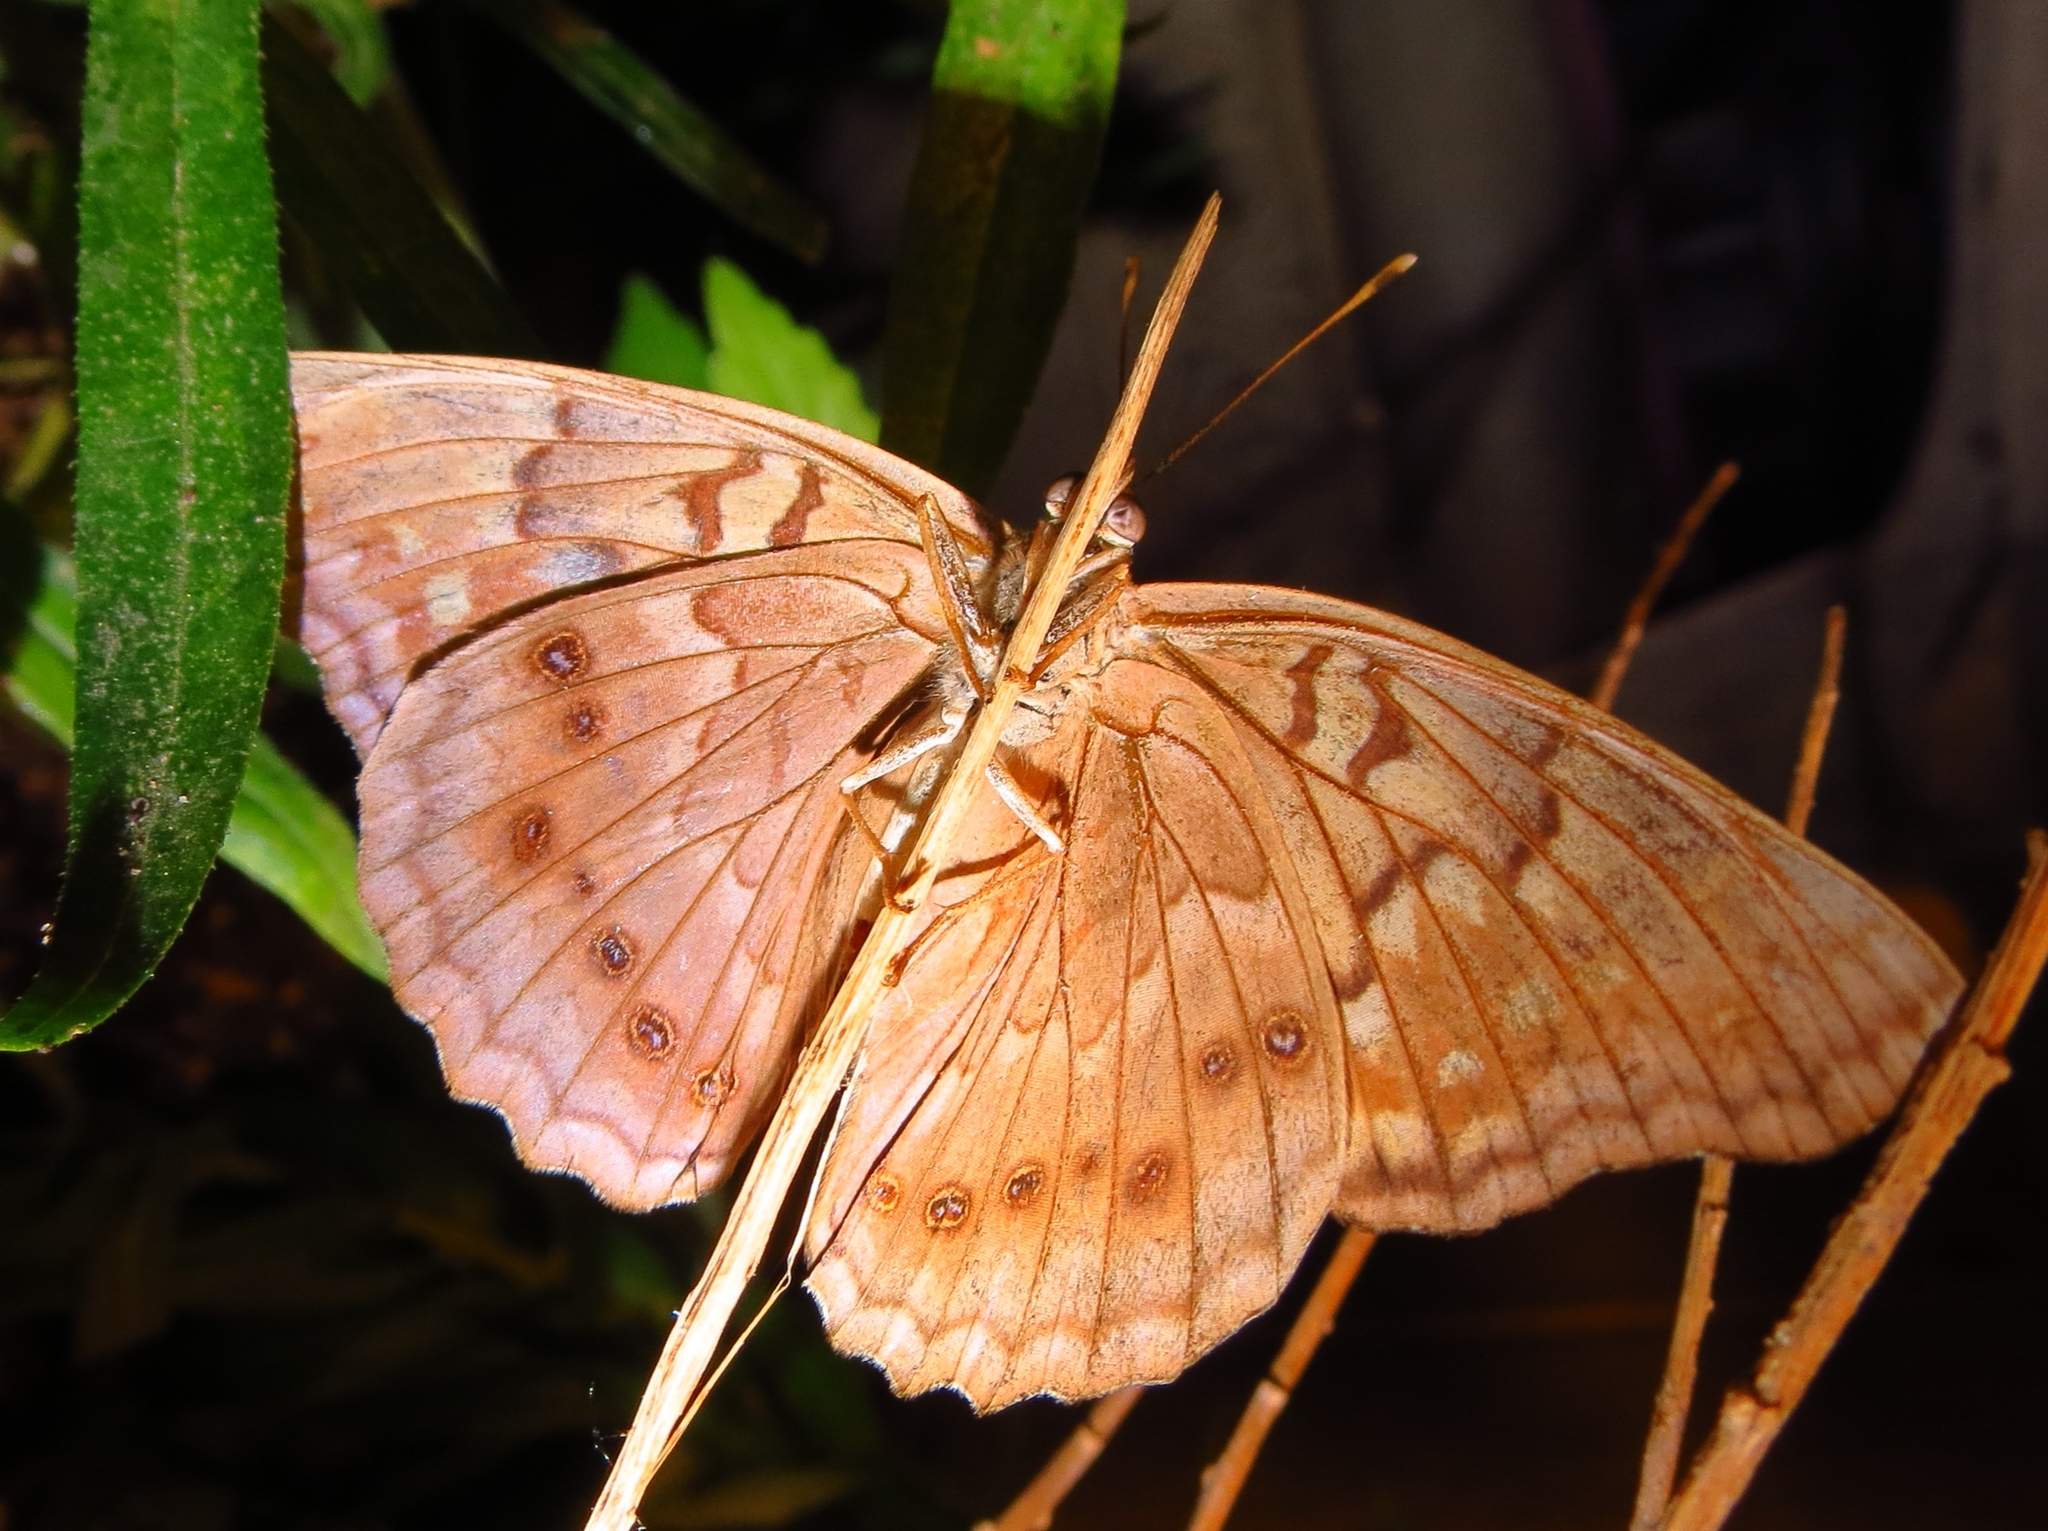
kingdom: Animalia
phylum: Arthropoda
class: Insecta
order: Lepidoptera
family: Nymphalidae
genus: Asterocampa
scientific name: Asterocampa clyton
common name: Tawny emperor
